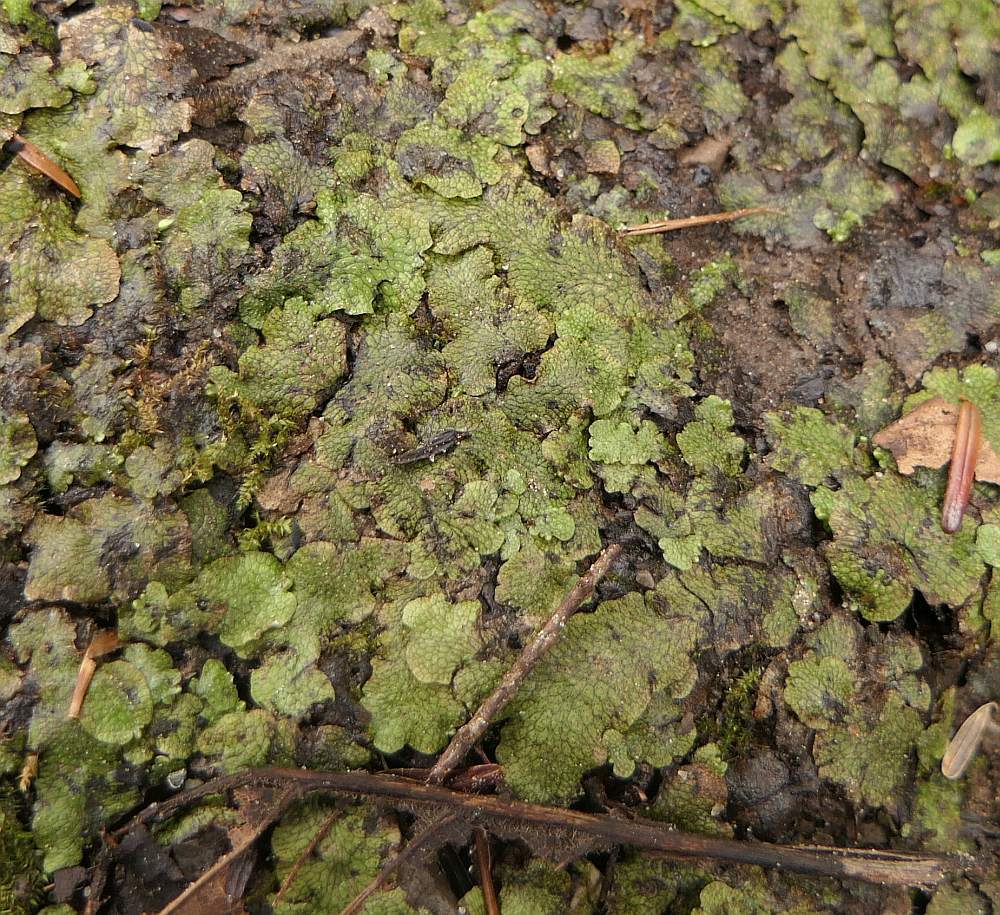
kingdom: Plantae
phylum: Marchantiophyta
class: Marchantiopsida
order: Marchantiales
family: Conocephalaceae
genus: Conocephalum
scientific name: Conocephalum salebrosum
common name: Cat-tongue liverwort
